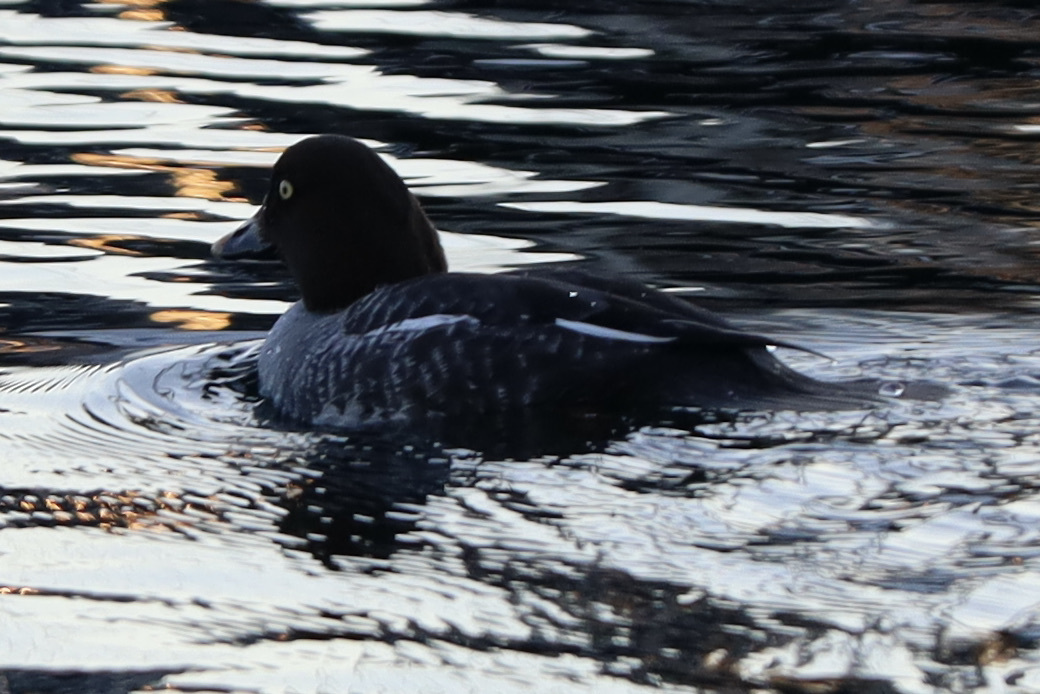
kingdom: Animalia
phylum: Chordata
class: Aves
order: Anseriformes
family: Anatidae
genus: Bucephala
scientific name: Bucephala clangula
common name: Common goldeneye
